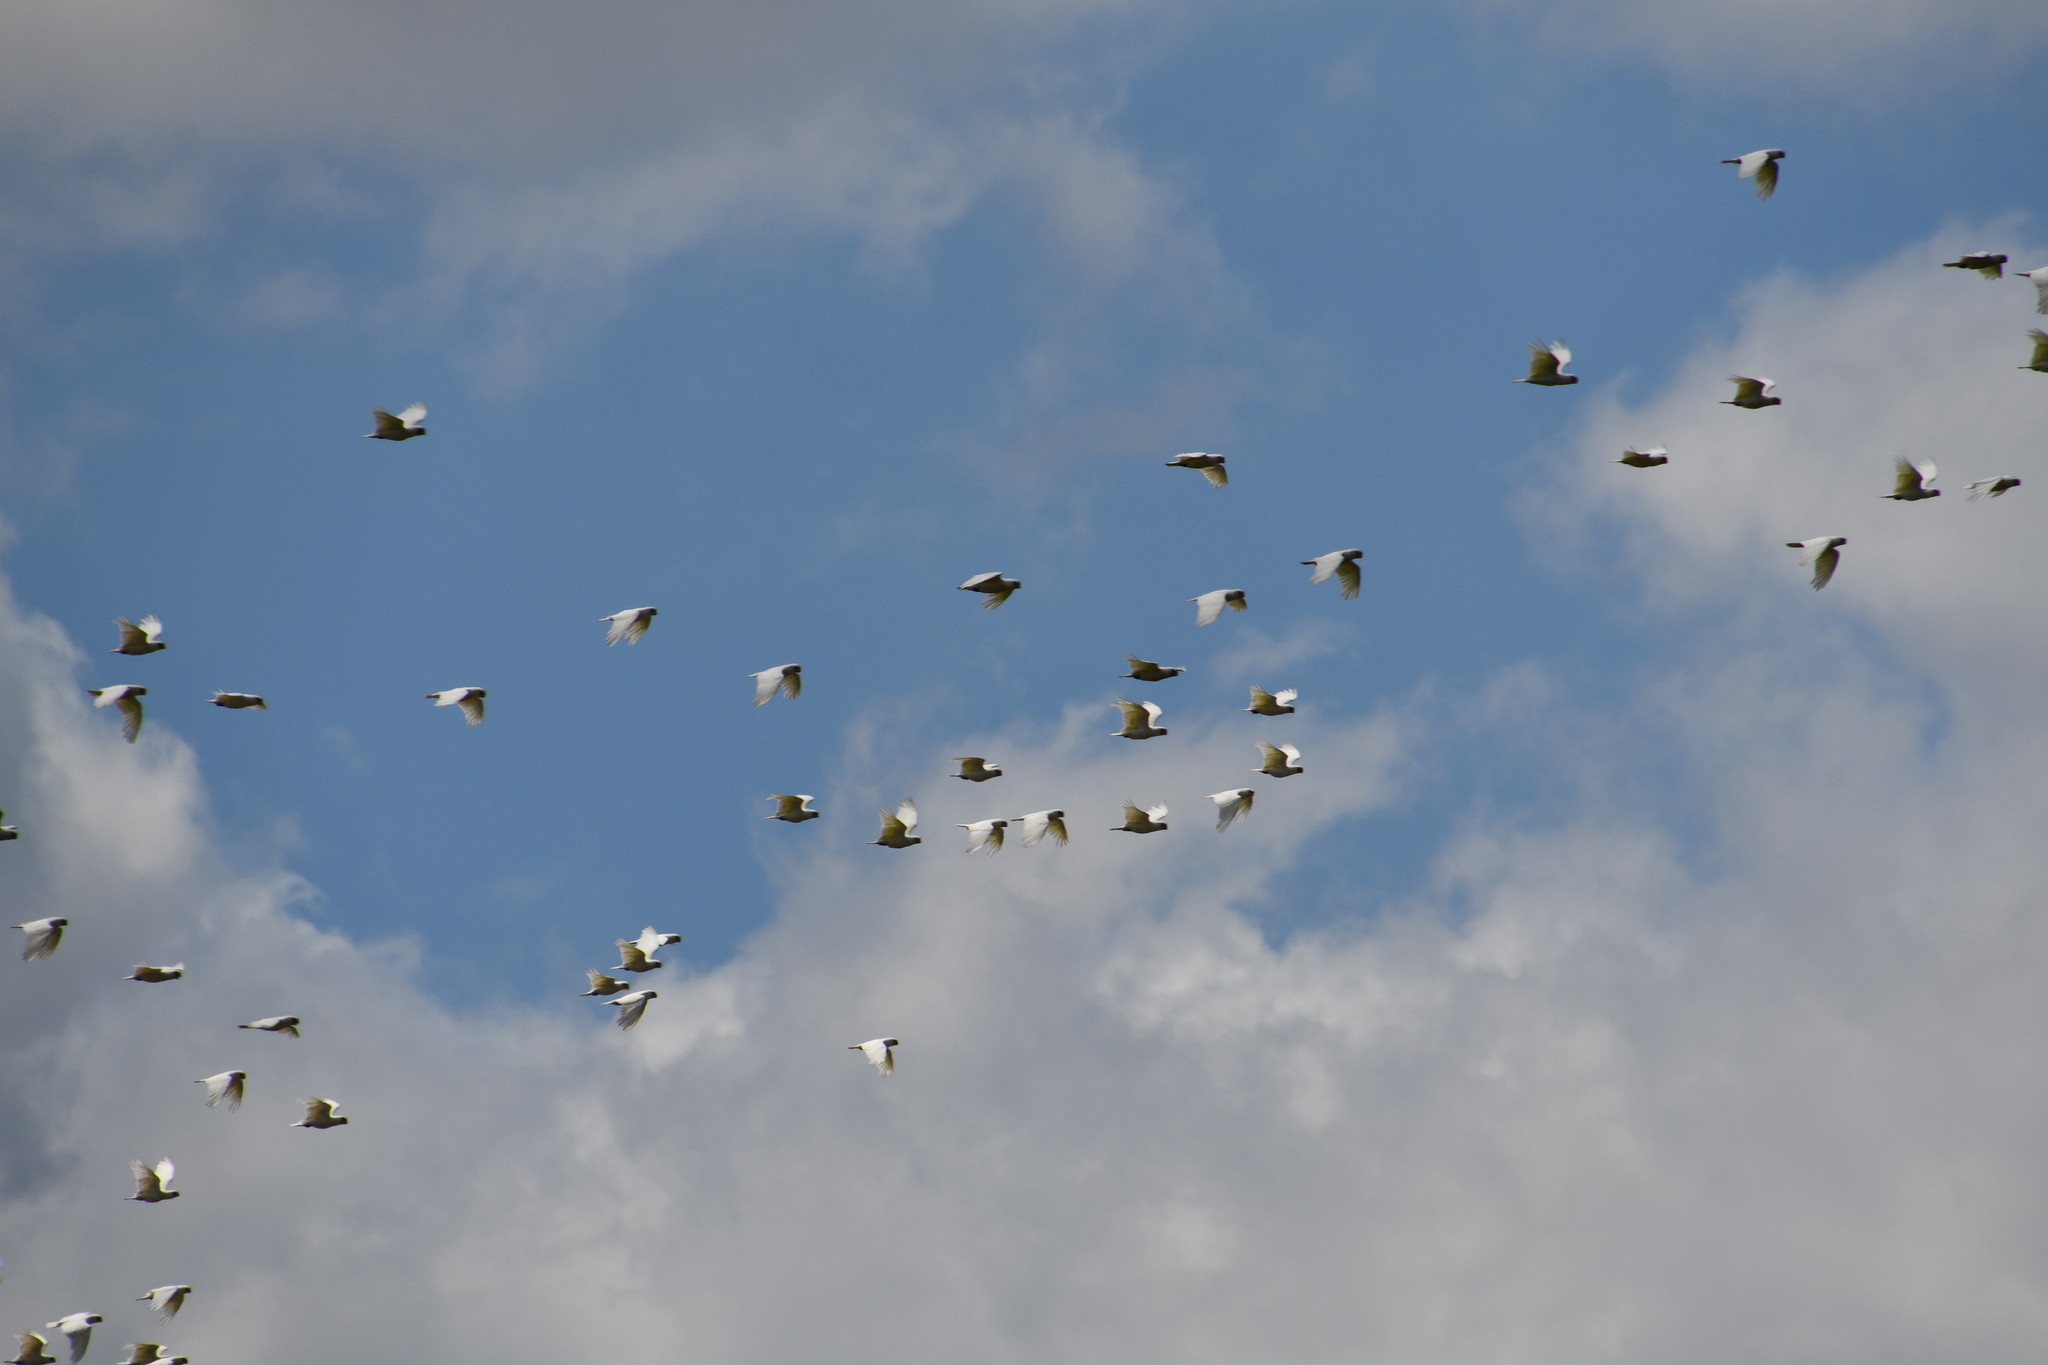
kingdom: Animalia
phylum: Chordata
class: Aves
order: Psittaciformes
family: Psittacidae
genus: Cacatua
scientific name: Cacatua sanguinea
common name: Little corella
